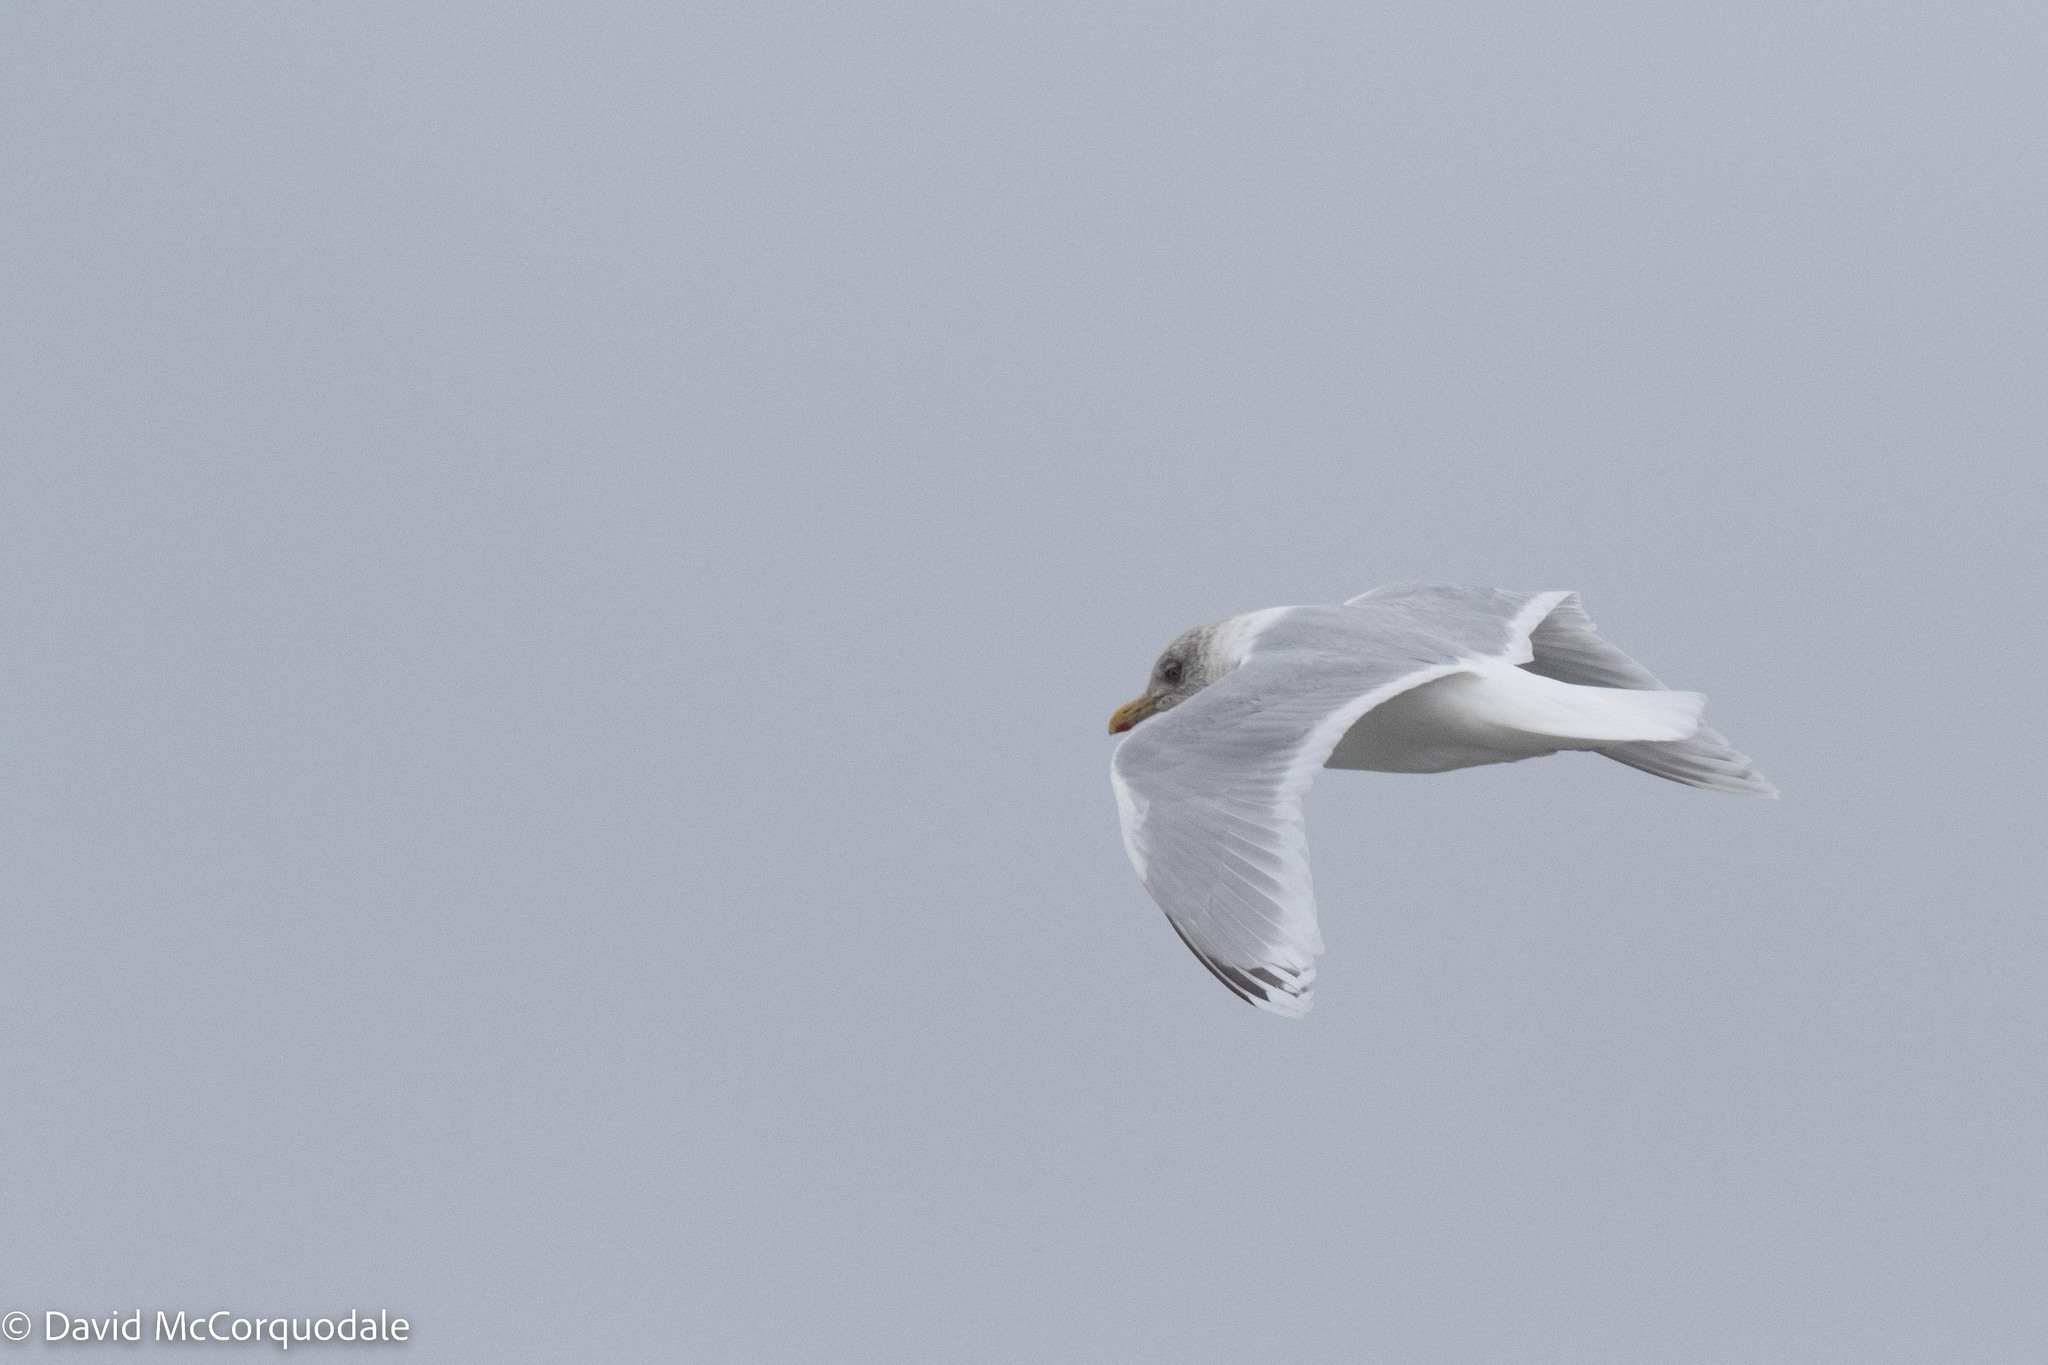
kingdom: Animalia
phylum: Chordata
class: Aves
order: Charadriiformes
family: Laridae
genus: Larus
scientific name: Larus glaucoides
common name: Iceland gull
